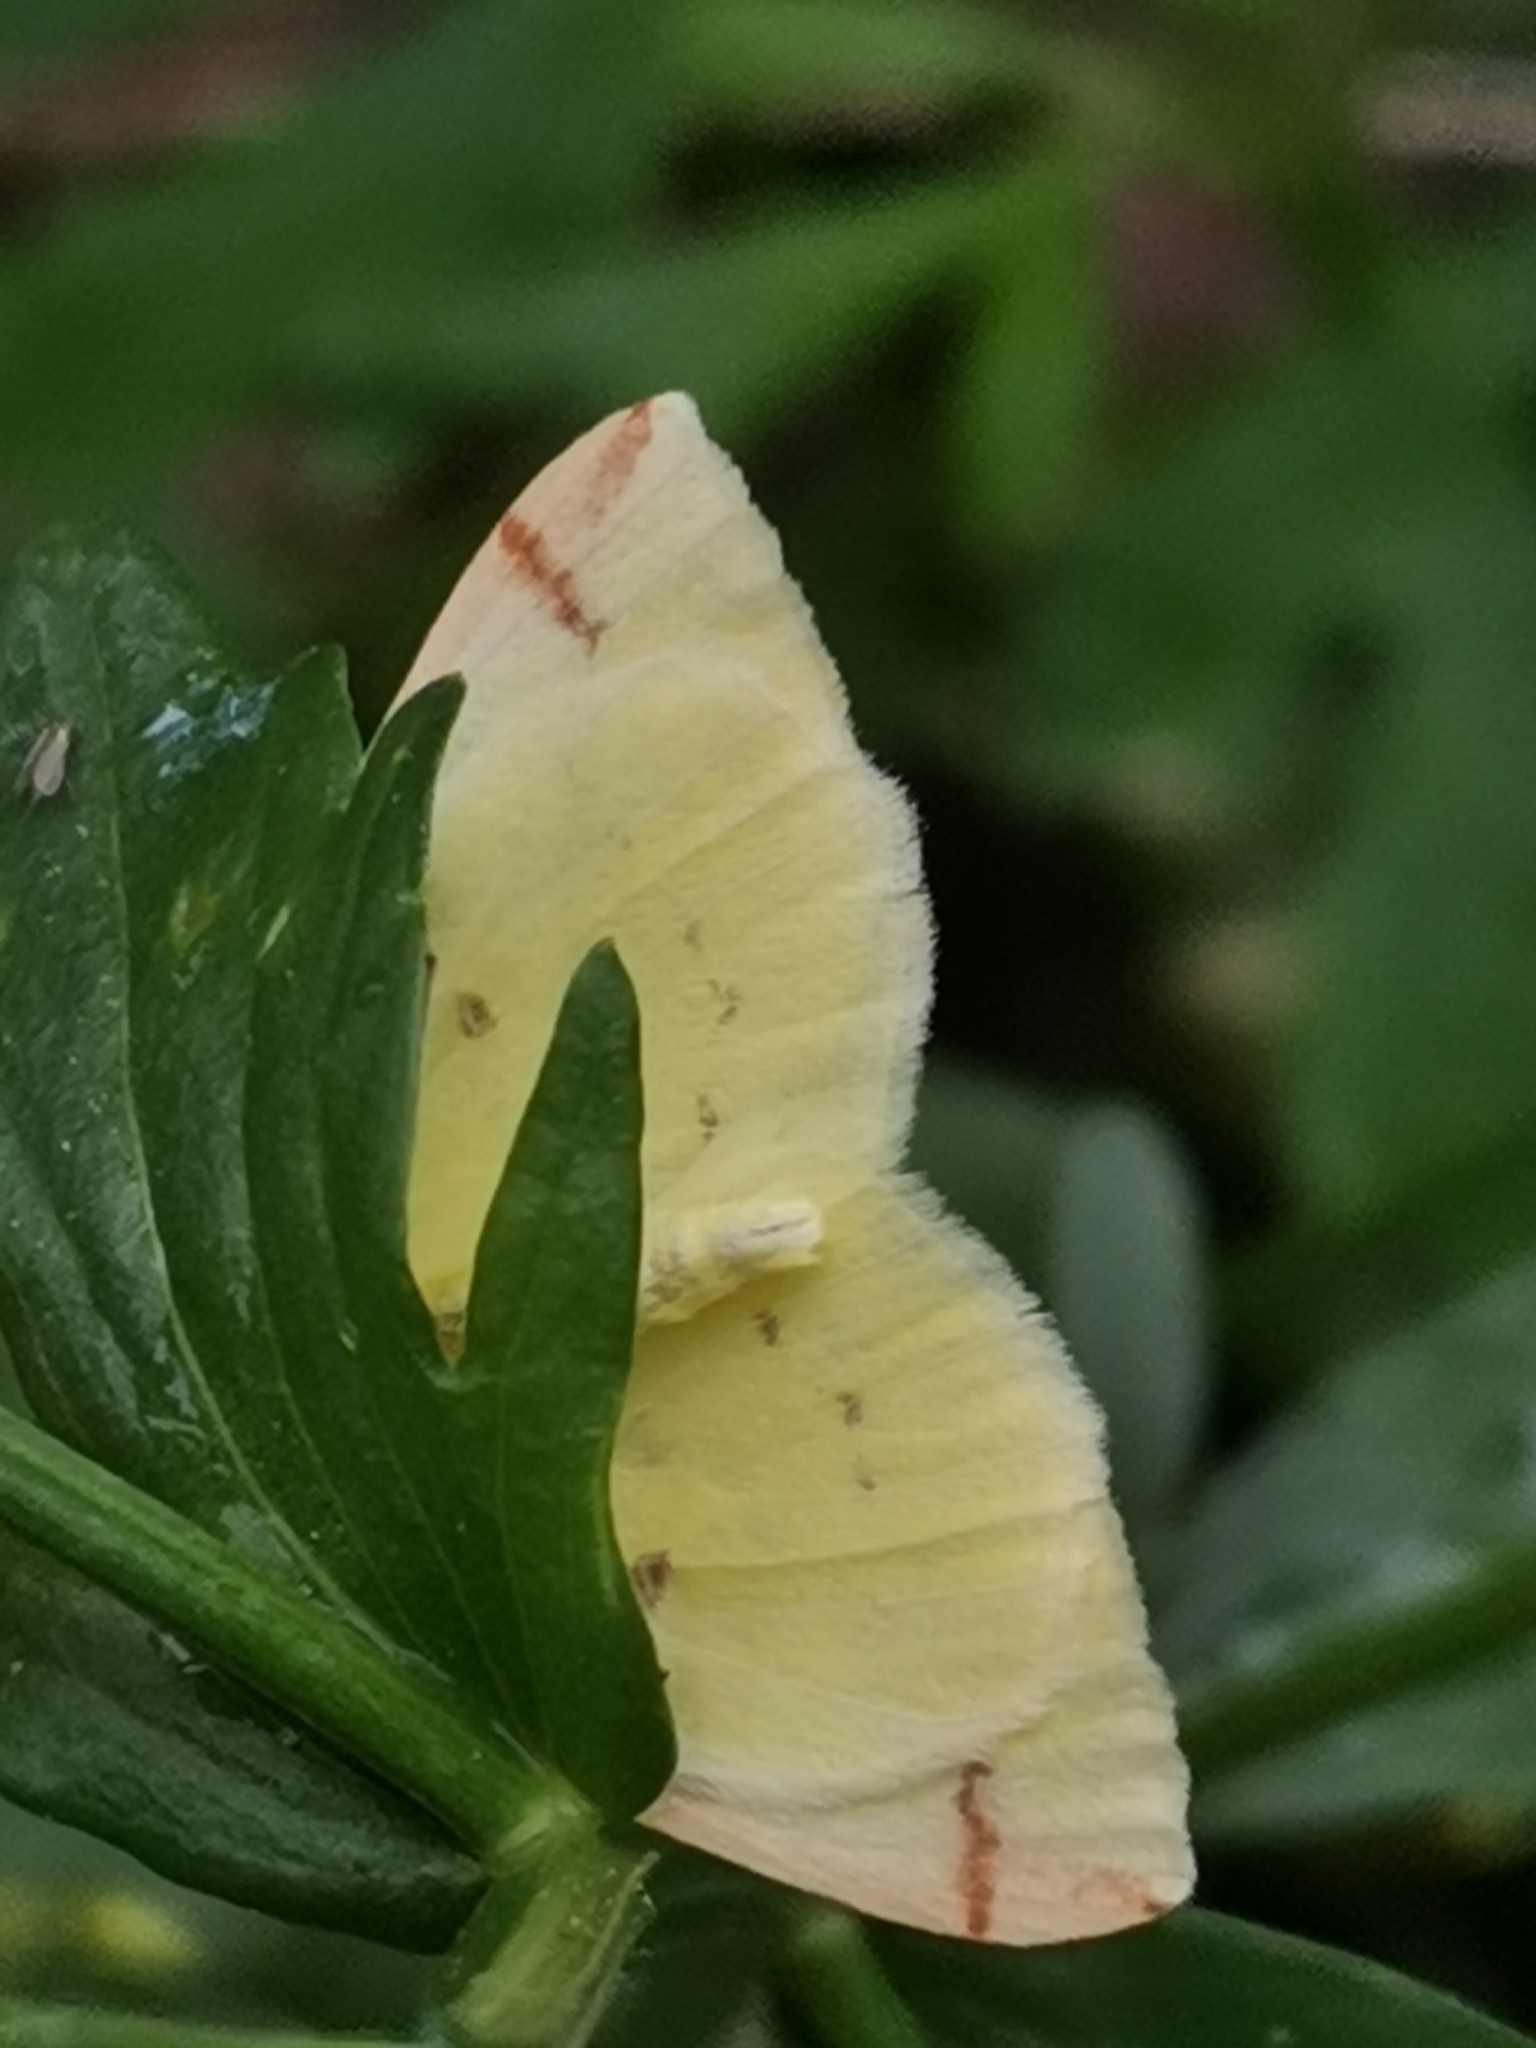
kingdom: Animalia
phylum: Arthropoda
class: Insecta
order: Lepidoptera
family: Geometridae
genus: Opisthograptis
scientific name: Opisthograptis luteolata
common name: Brimstone moth
